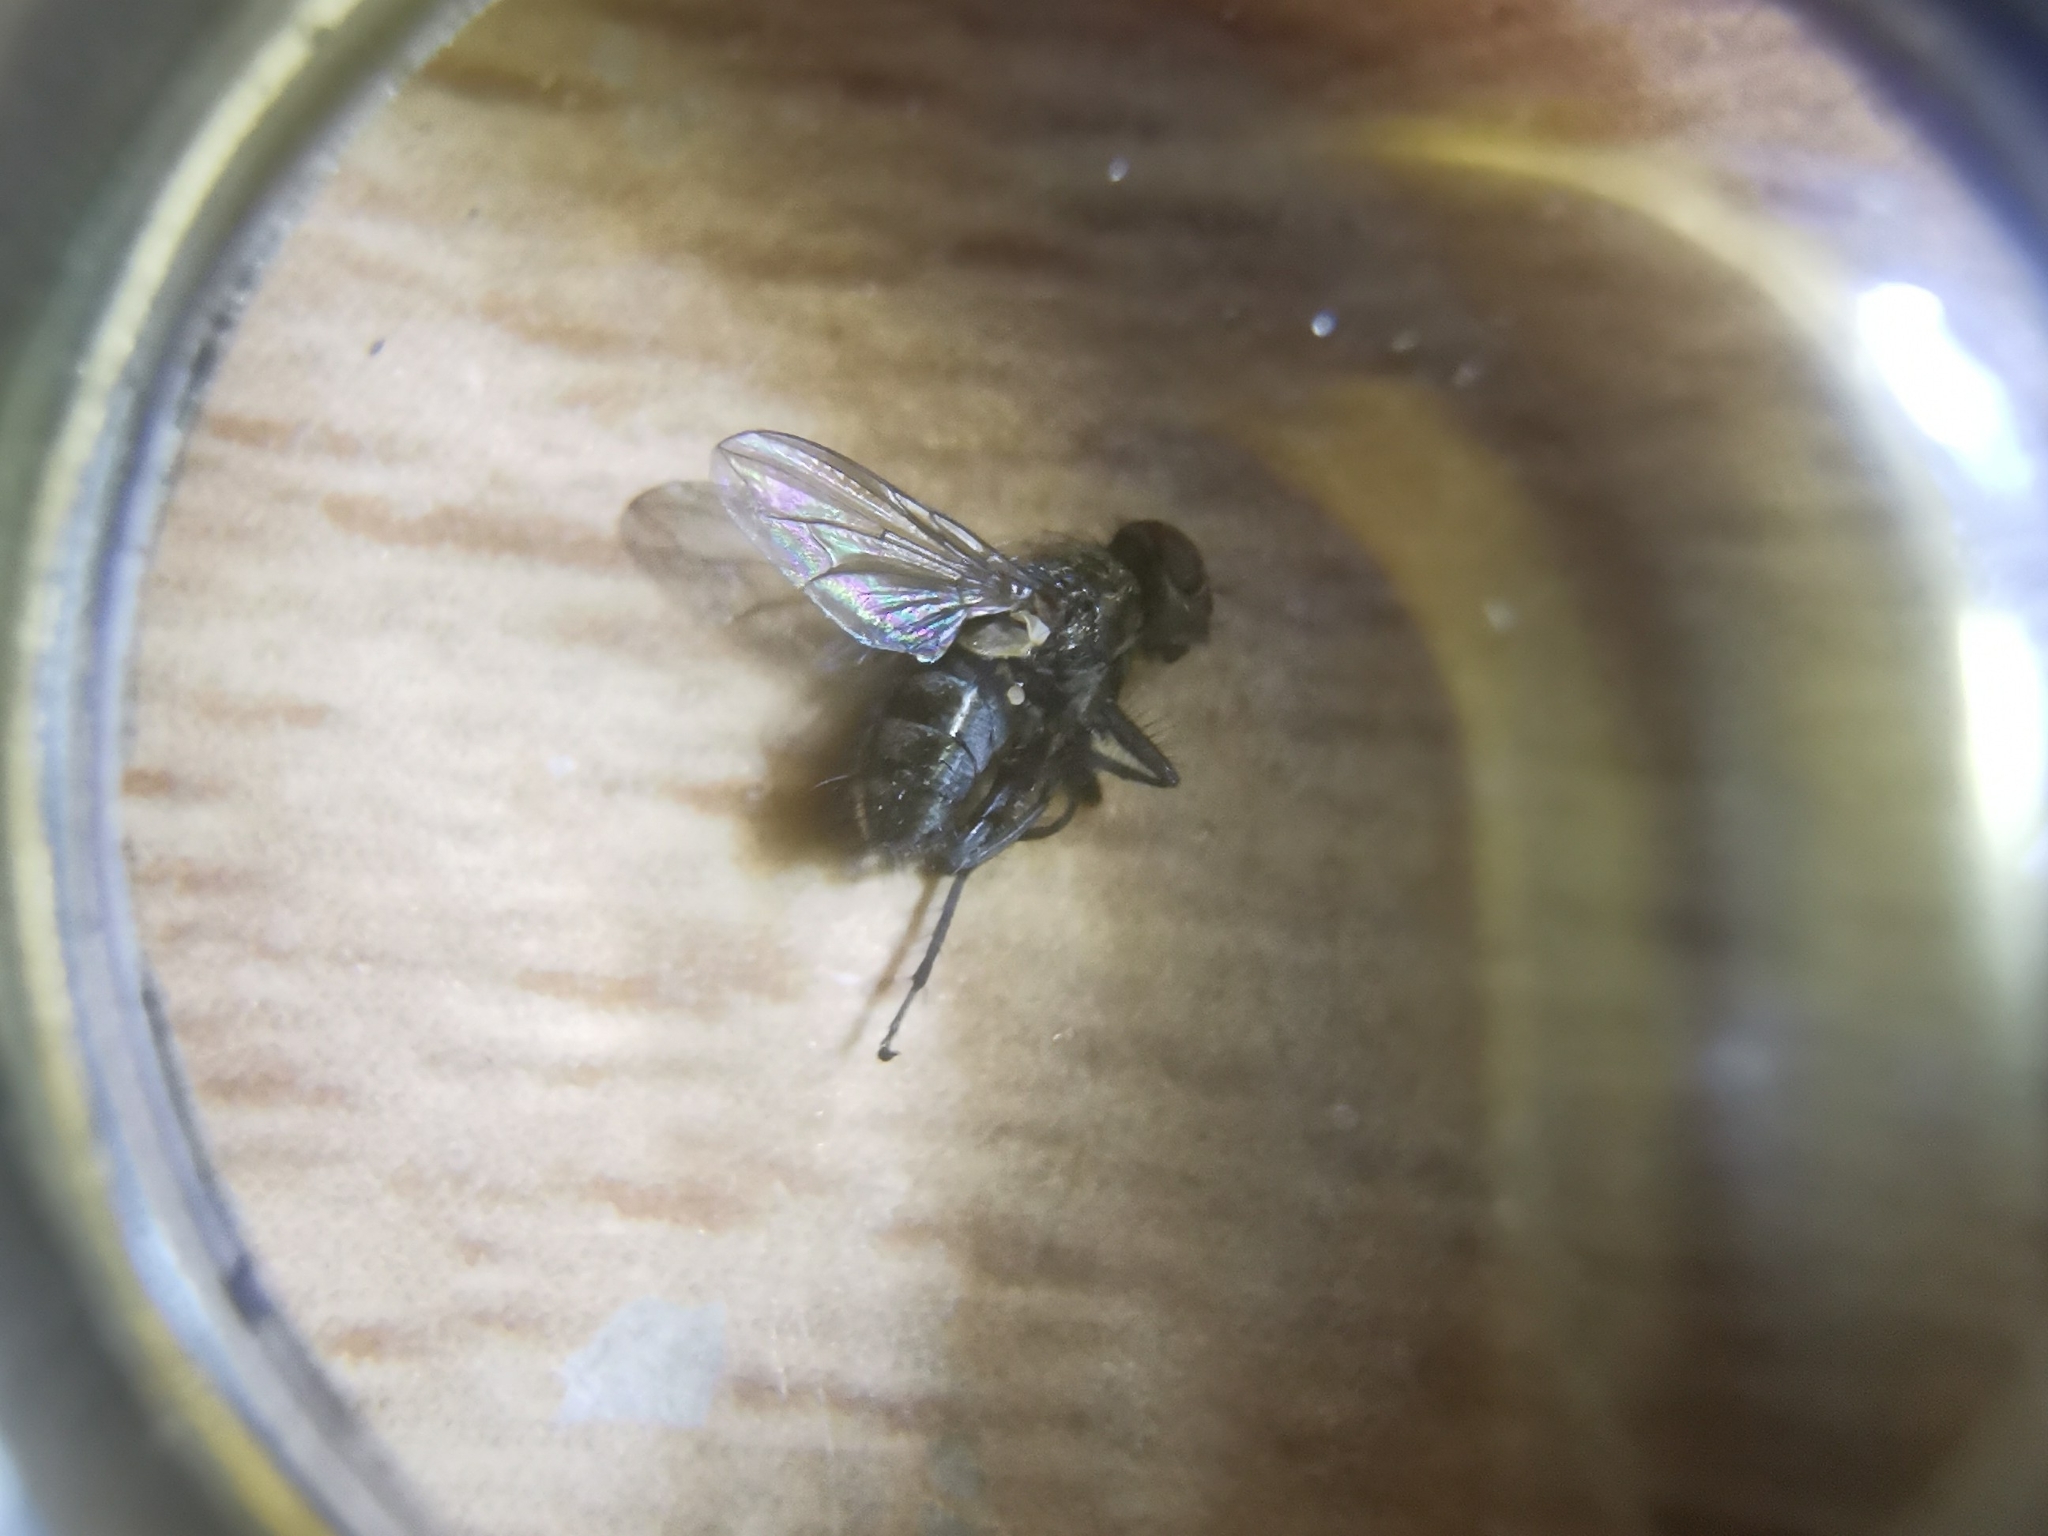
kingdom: Animalia
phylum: Arthropoda
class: Insecta
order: Diptera
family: Polleniidae
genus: Pollenia
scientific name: Pollenia
